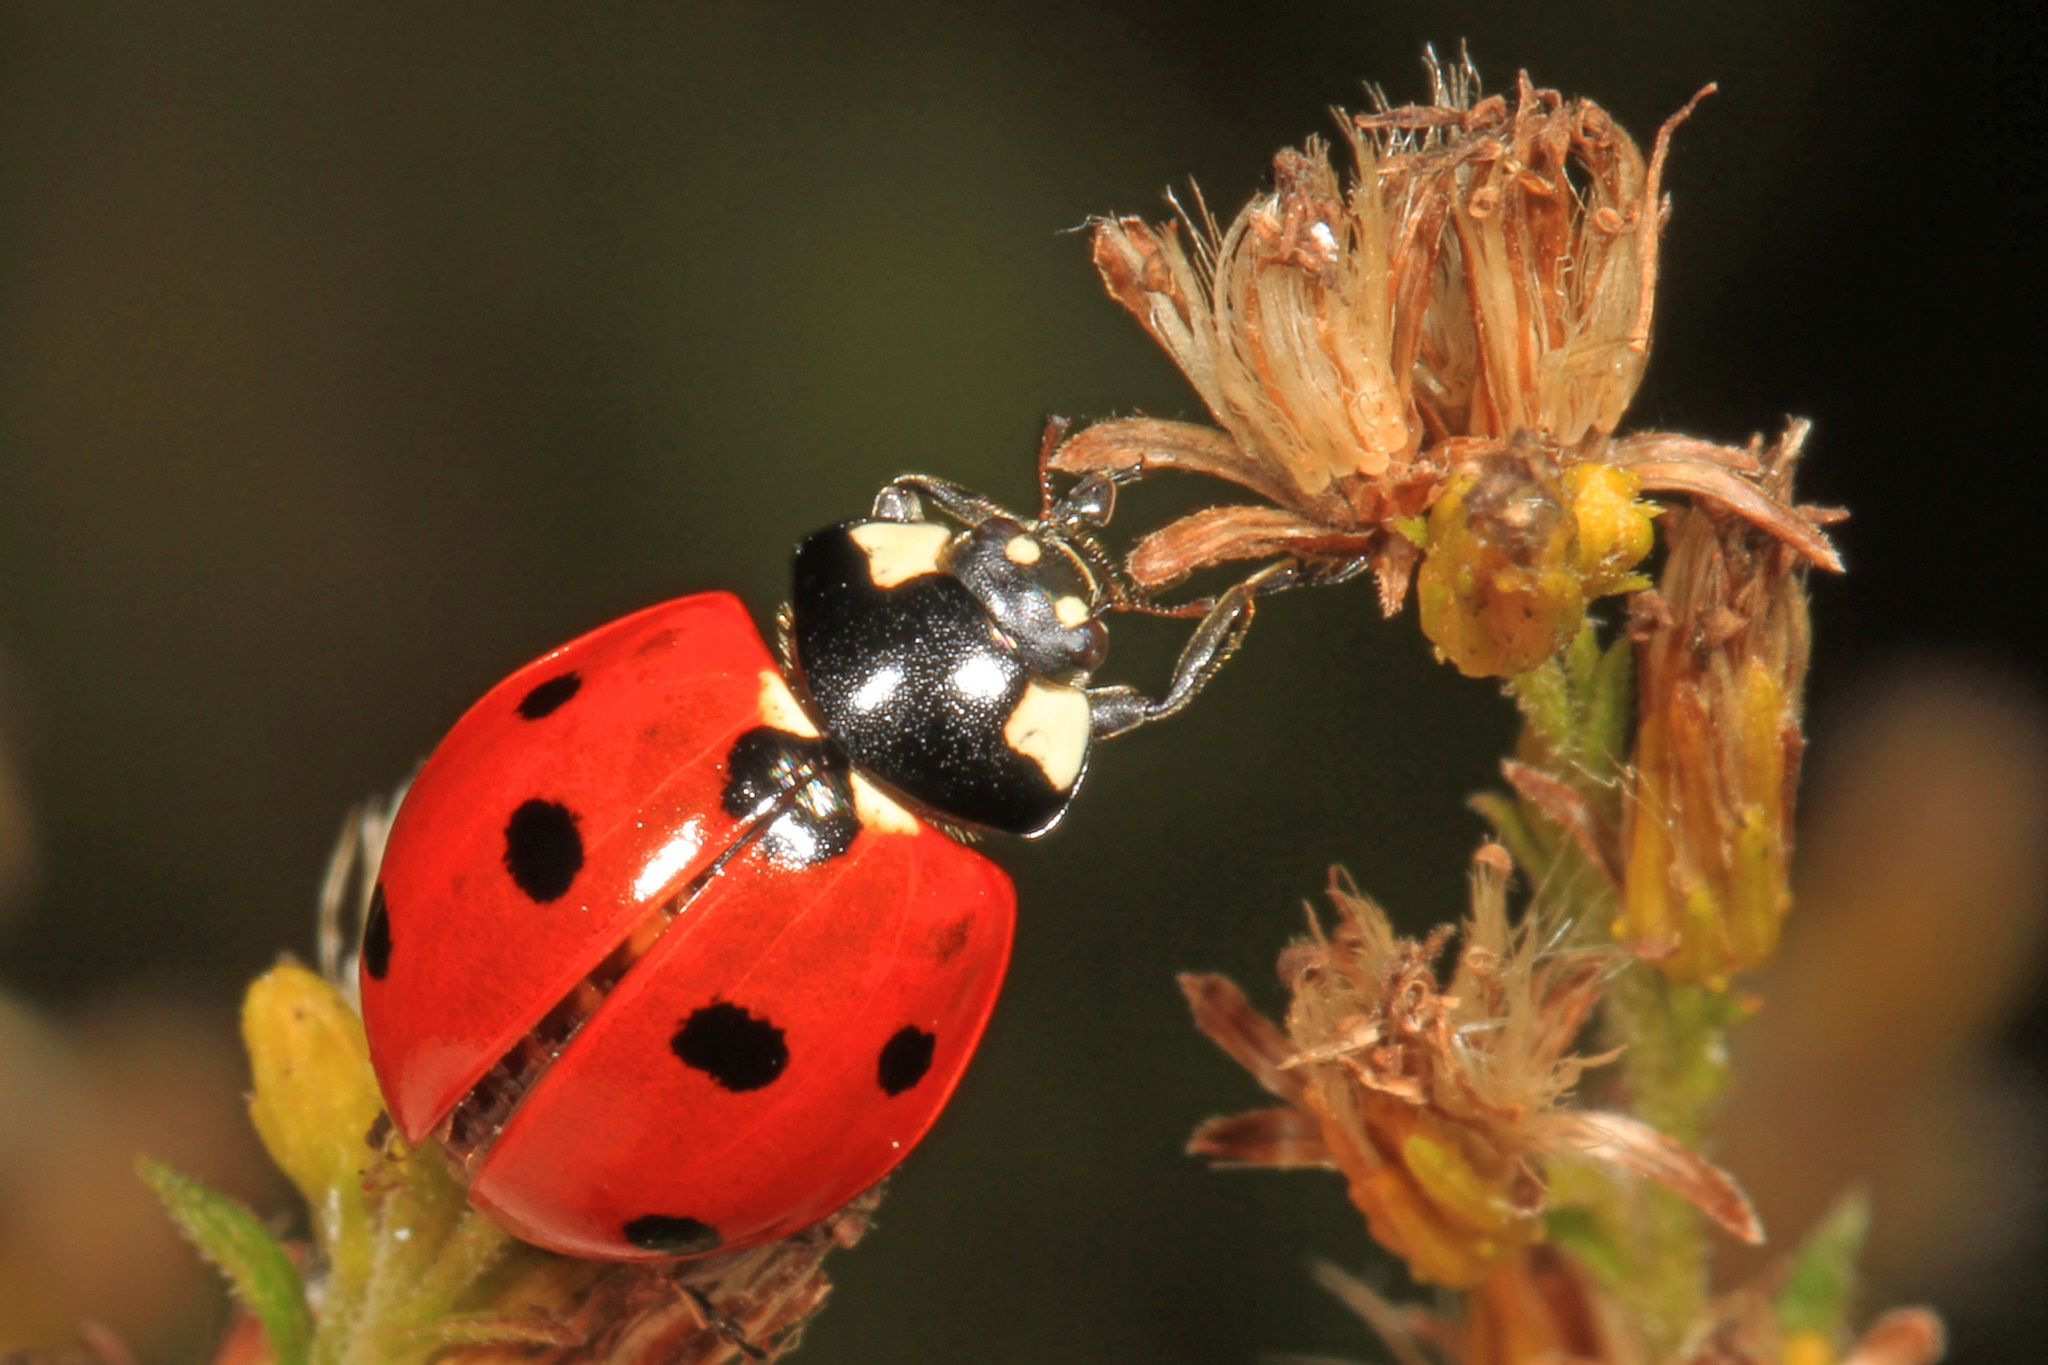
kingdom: Animalia
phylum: Arthropoda
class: Insecta
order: Coleoptera
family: Coccinellidae
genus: Coccinella
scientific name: Coccinella septempunctata
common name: Sevenspotted lady beetle
